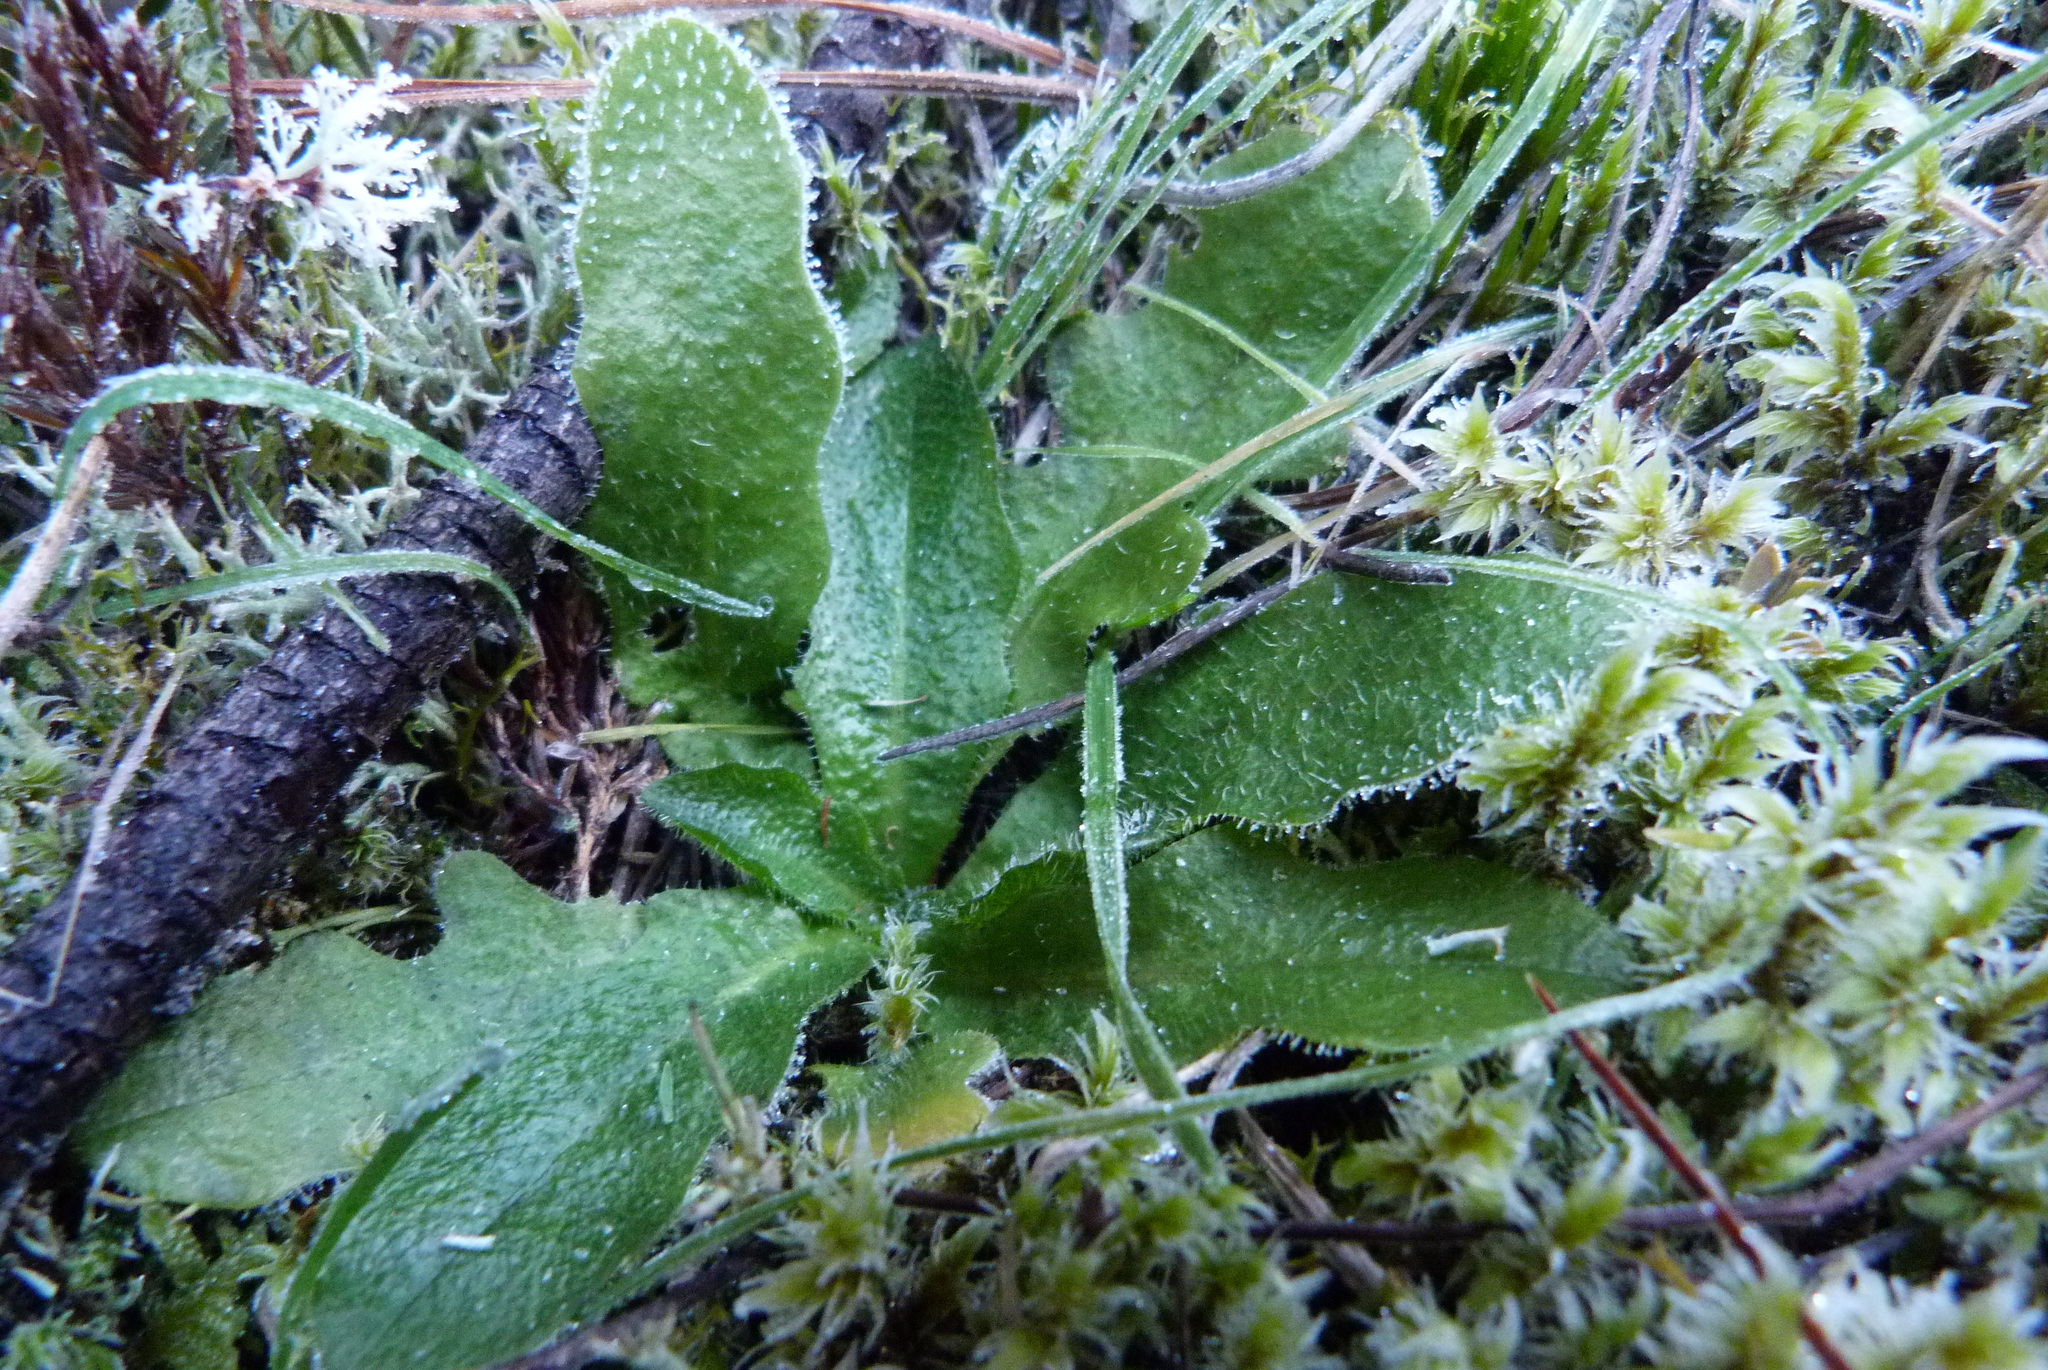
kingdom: Plantae
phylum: Tracheophyta
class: Magnoliopsida
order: Asterales
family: Asteraceae
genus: Hypochaeris
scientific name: Hypochaeris radicata
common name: Flatweed
